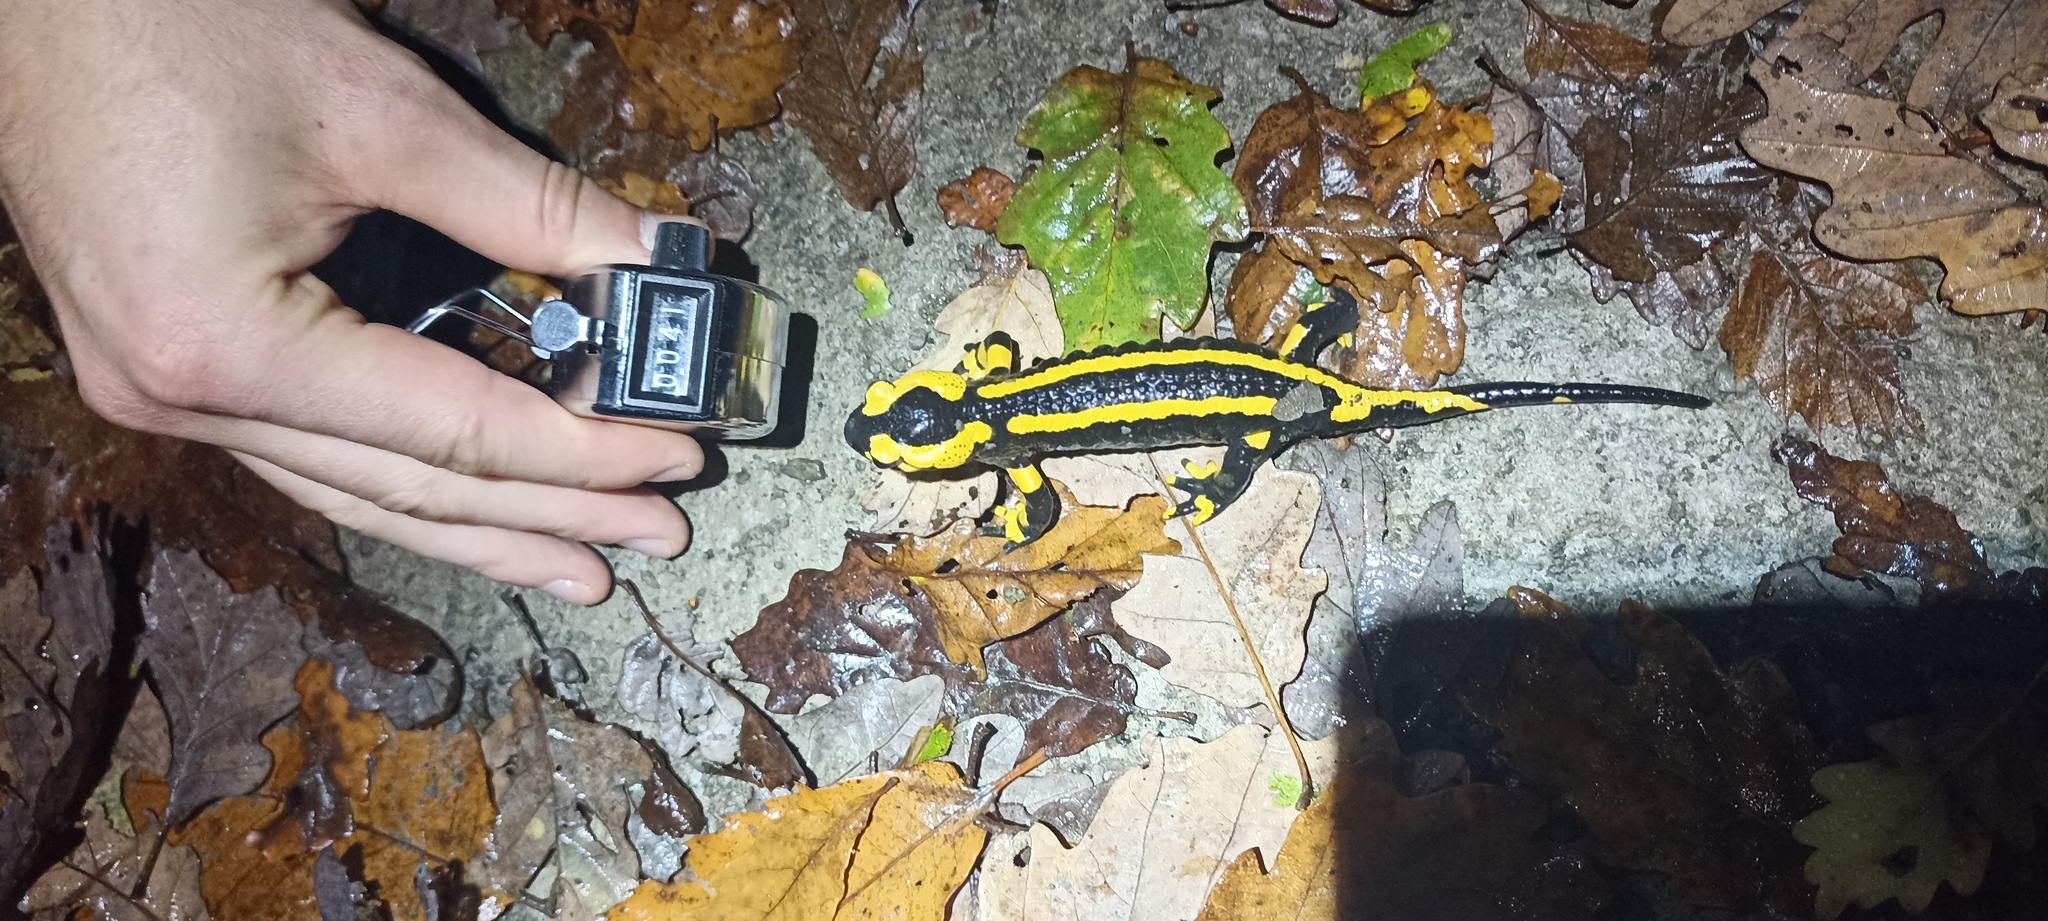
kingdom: Animalia
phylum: Chordata
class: Amphibia
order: Caudata
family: Salamandridae
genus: Salamandra
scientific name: Salamandra salamandra
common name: Fire salamander
